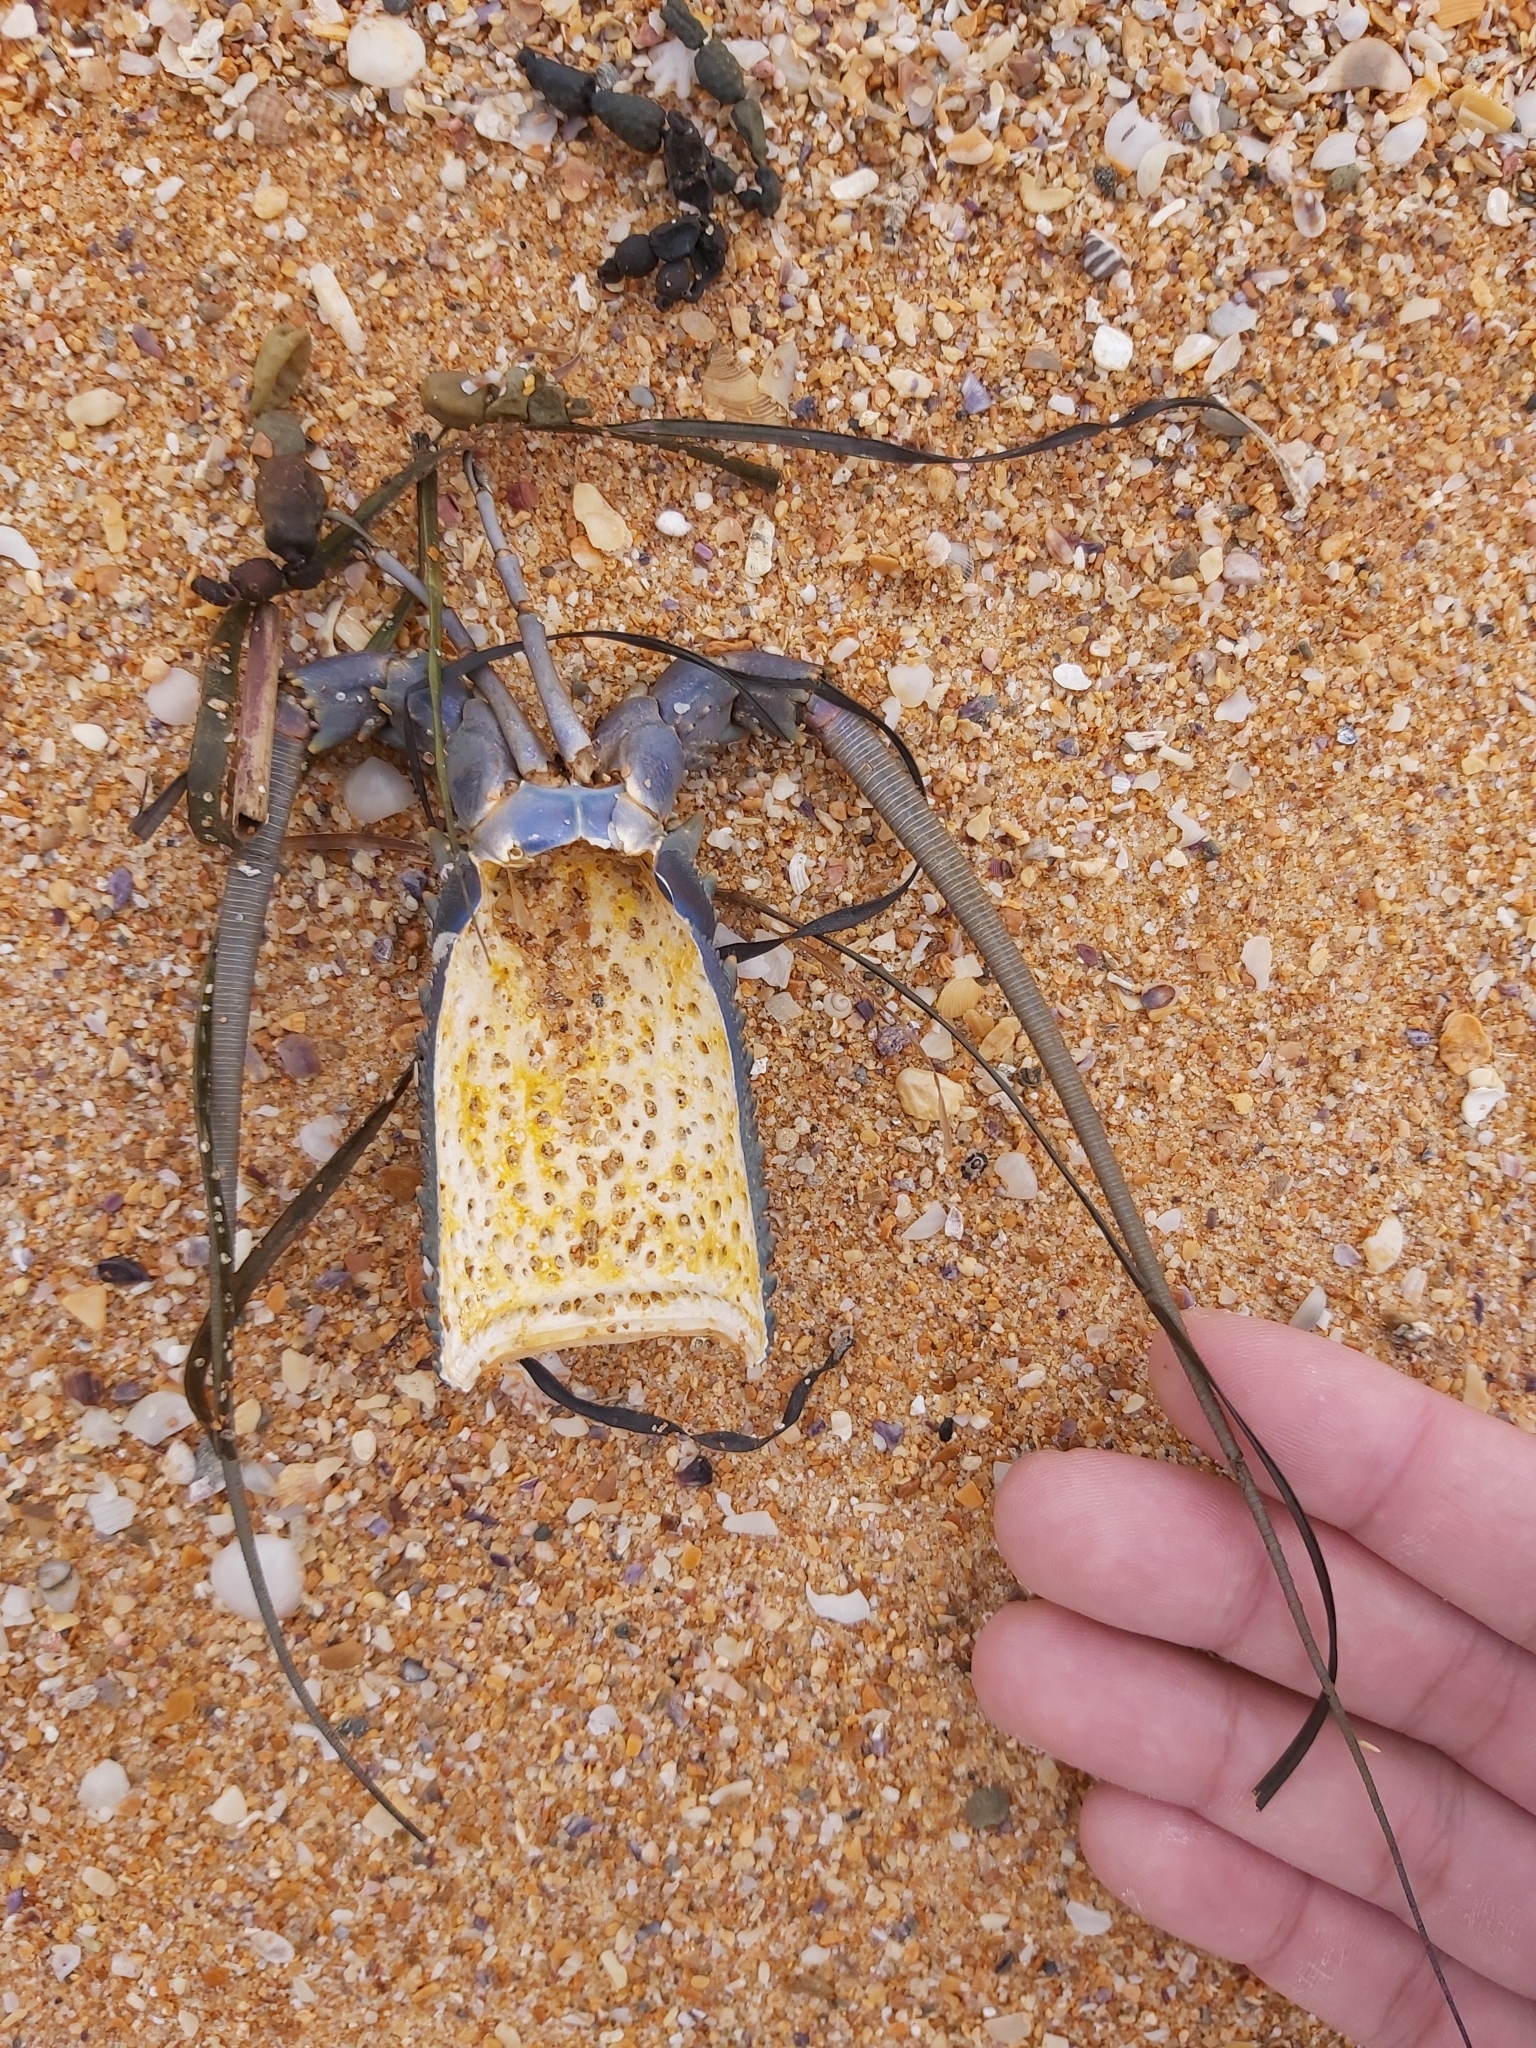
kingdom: Animalia
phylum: Arthropoda
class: Malacostraca
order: Decapoda
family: Palinuridae
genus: Sagmariasus
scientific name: Sagmariasus verreauxi
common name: Green rock lobster
